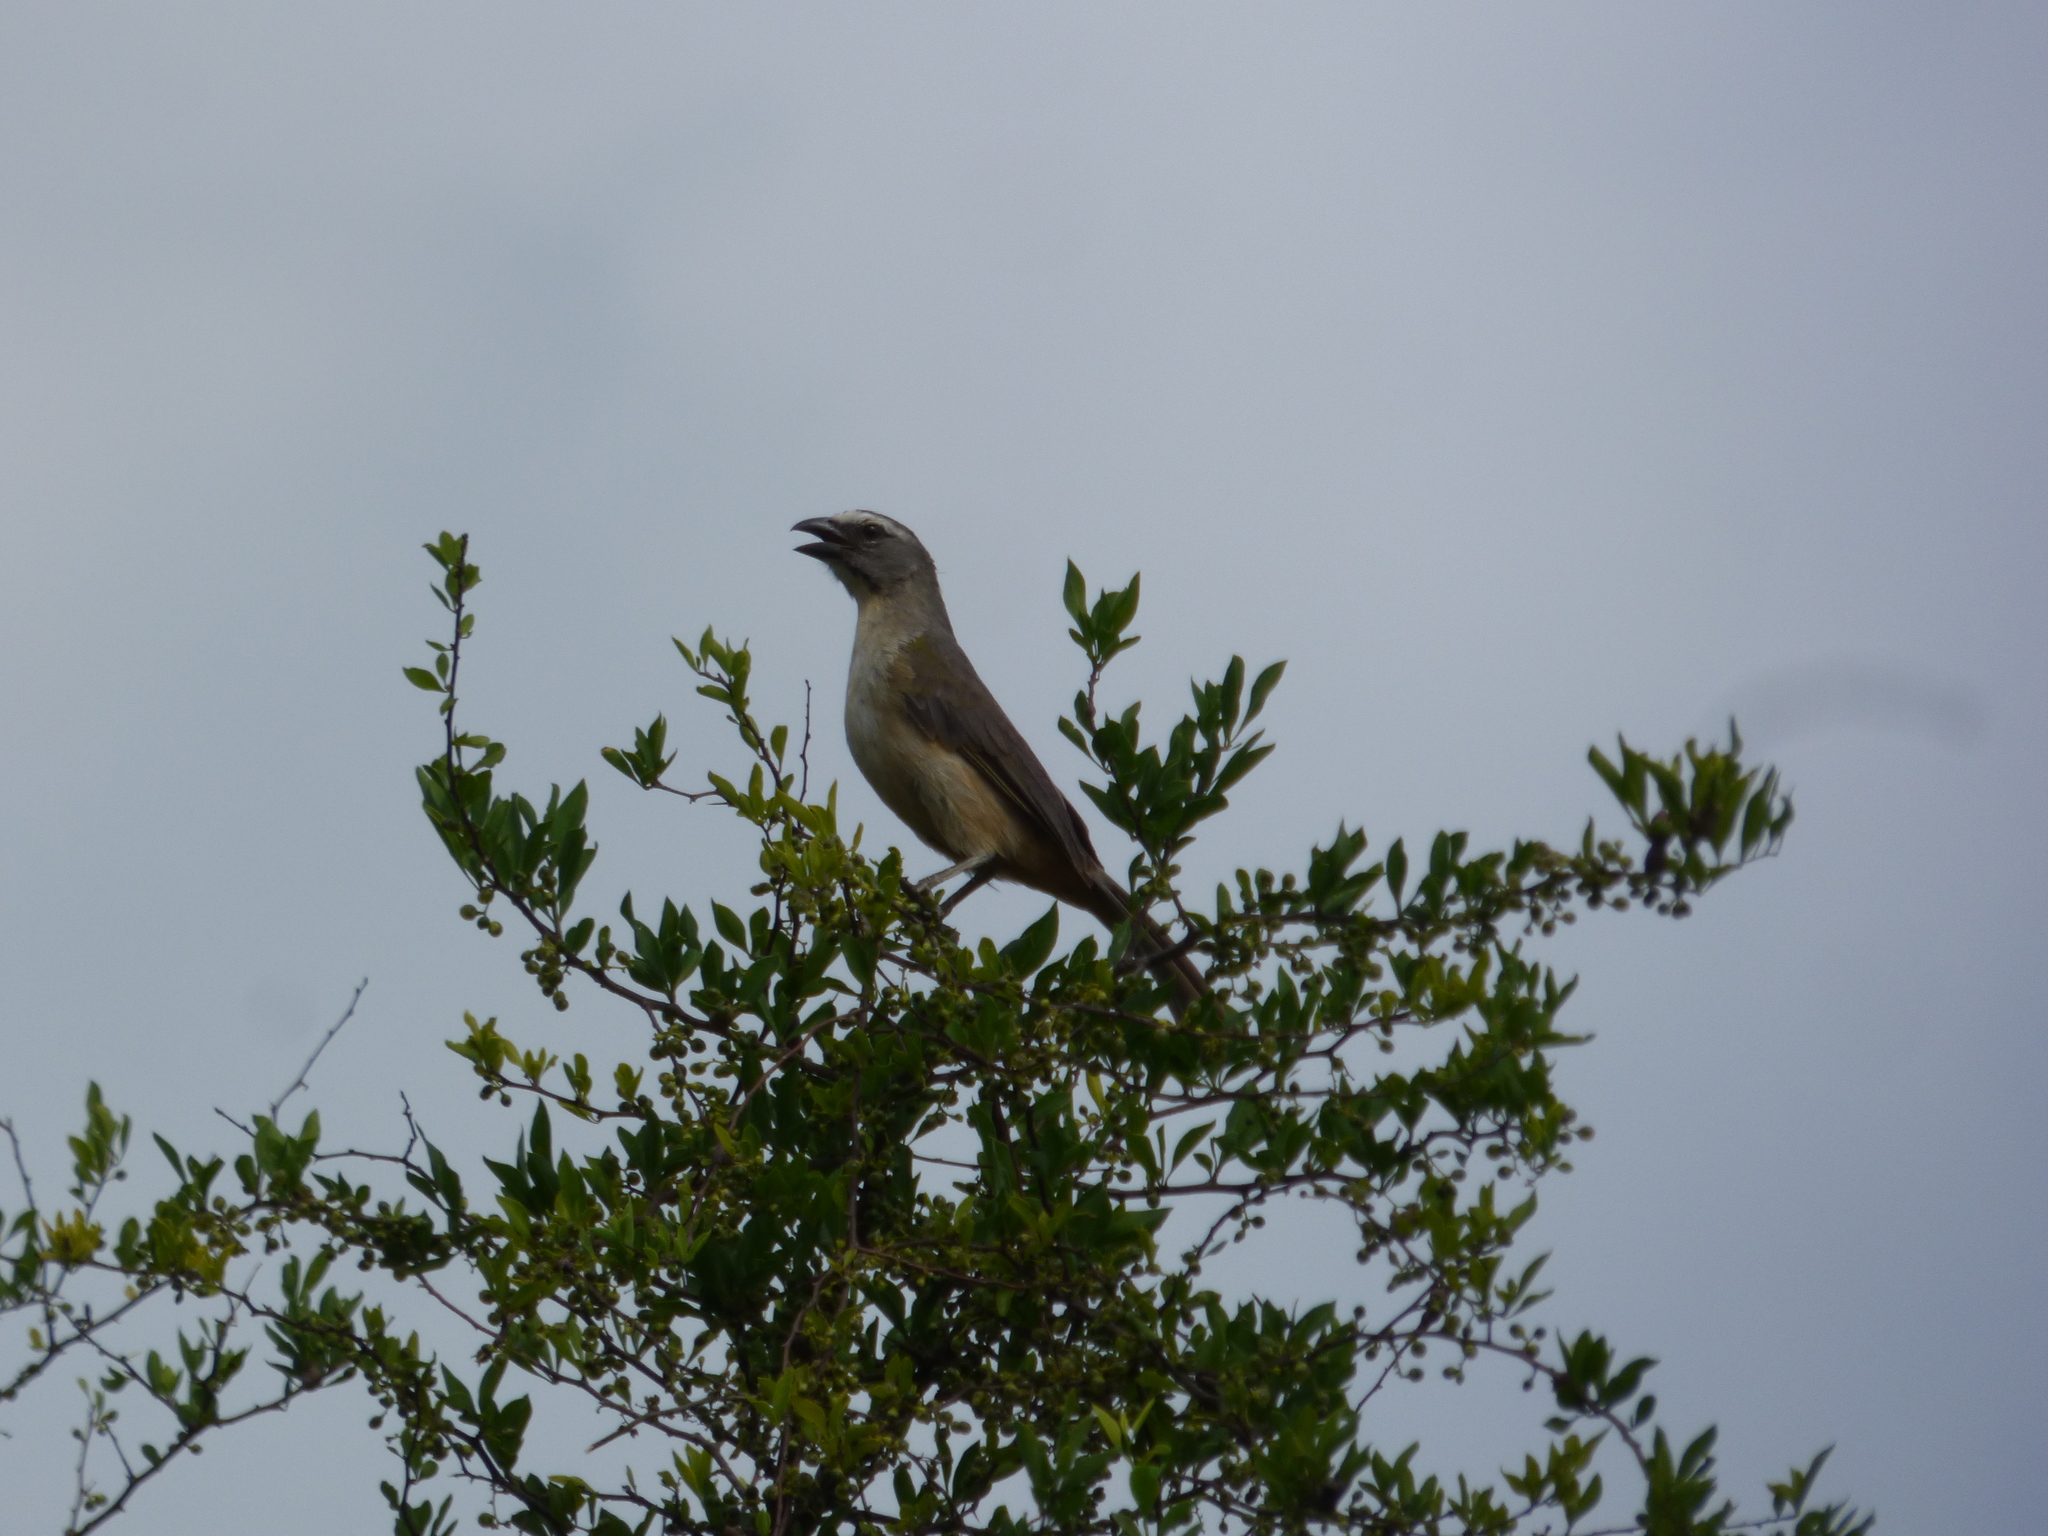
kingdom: Animalia
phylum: Chordata
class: Aves
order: Passeriformes
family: Thraupidae
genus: Saltator
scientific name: Saltator coerulescens
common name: Grayish saltator
